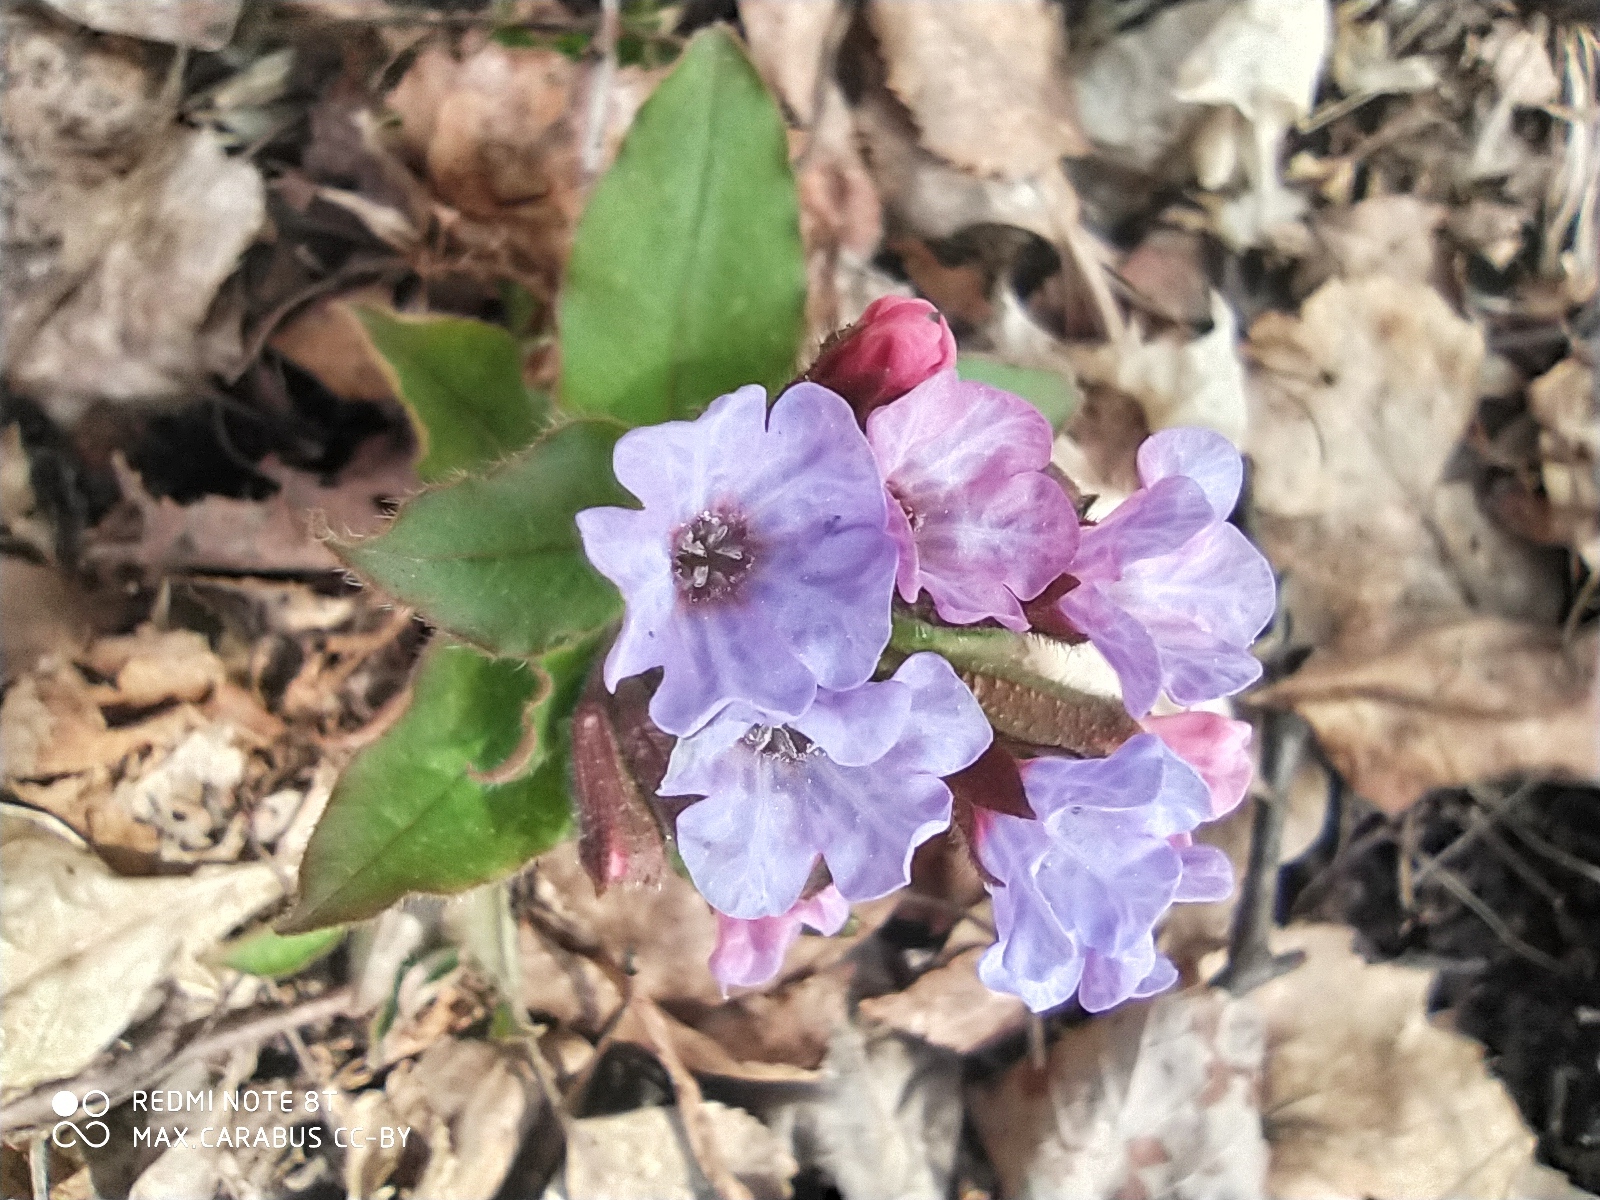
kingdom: Plantae
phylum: Tracheophyta
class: Magnoliopsida
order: Boraginales
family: Boraginaceae
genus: Pulmonaria
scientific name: Pulmonaria obscura
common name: Suffolk lungwort
